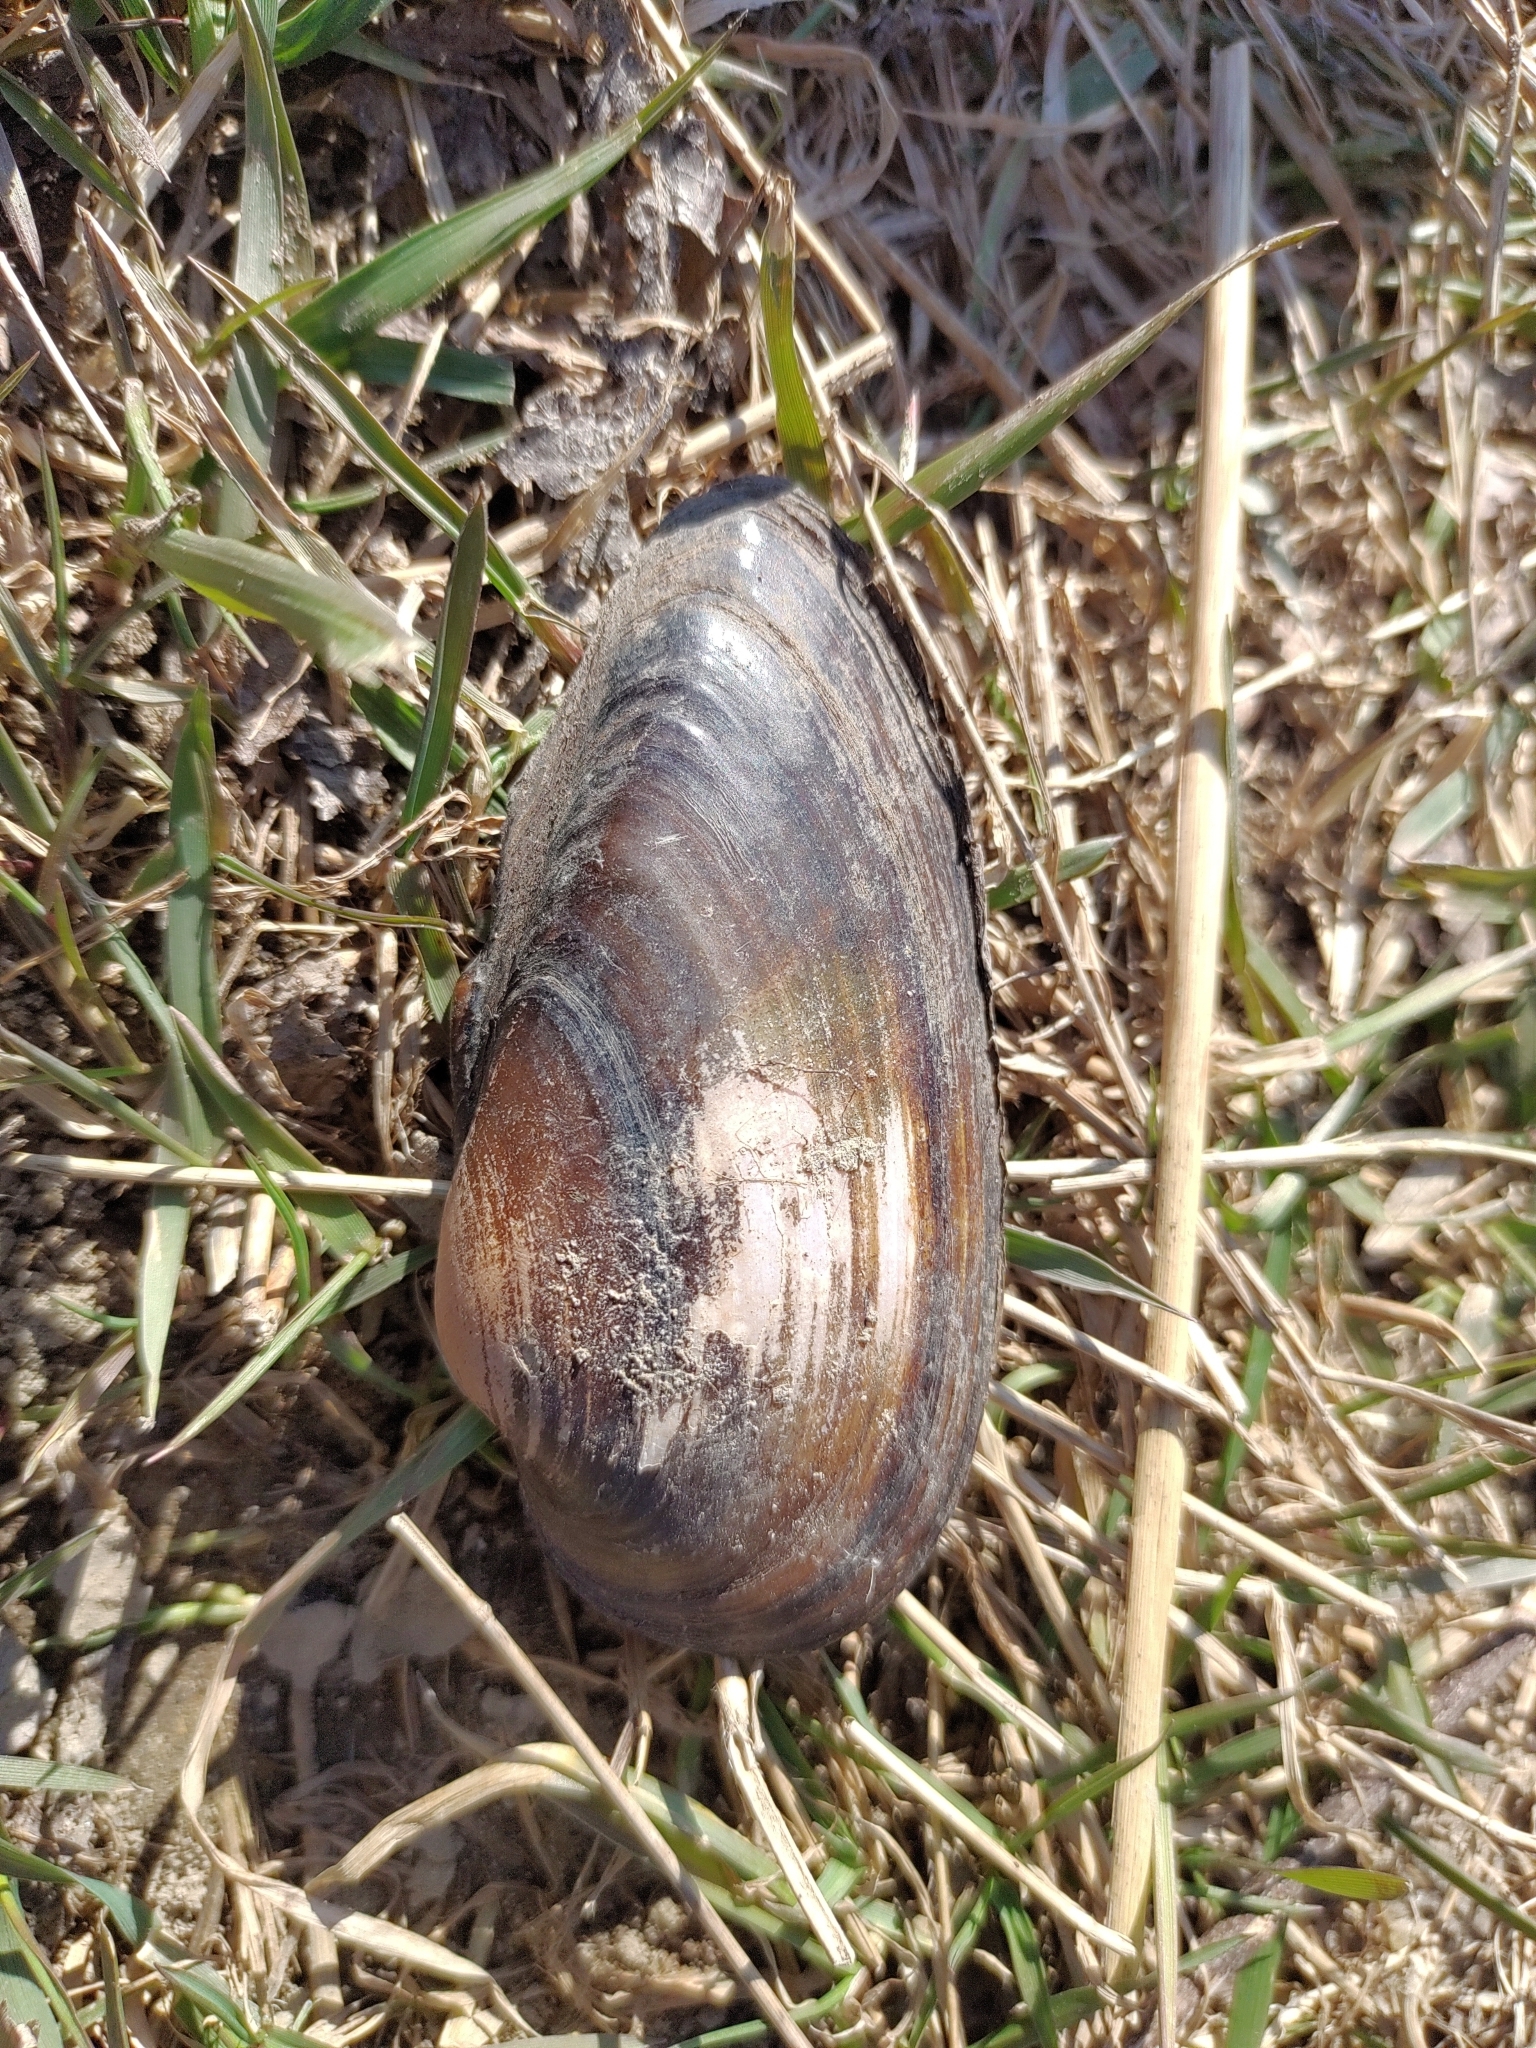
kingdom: Animalia
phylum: Mollusca
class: Bivalvia
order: Unionida
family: Unionidae
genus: Unio
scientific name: Unio tumidus
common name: Swollen river mussel
